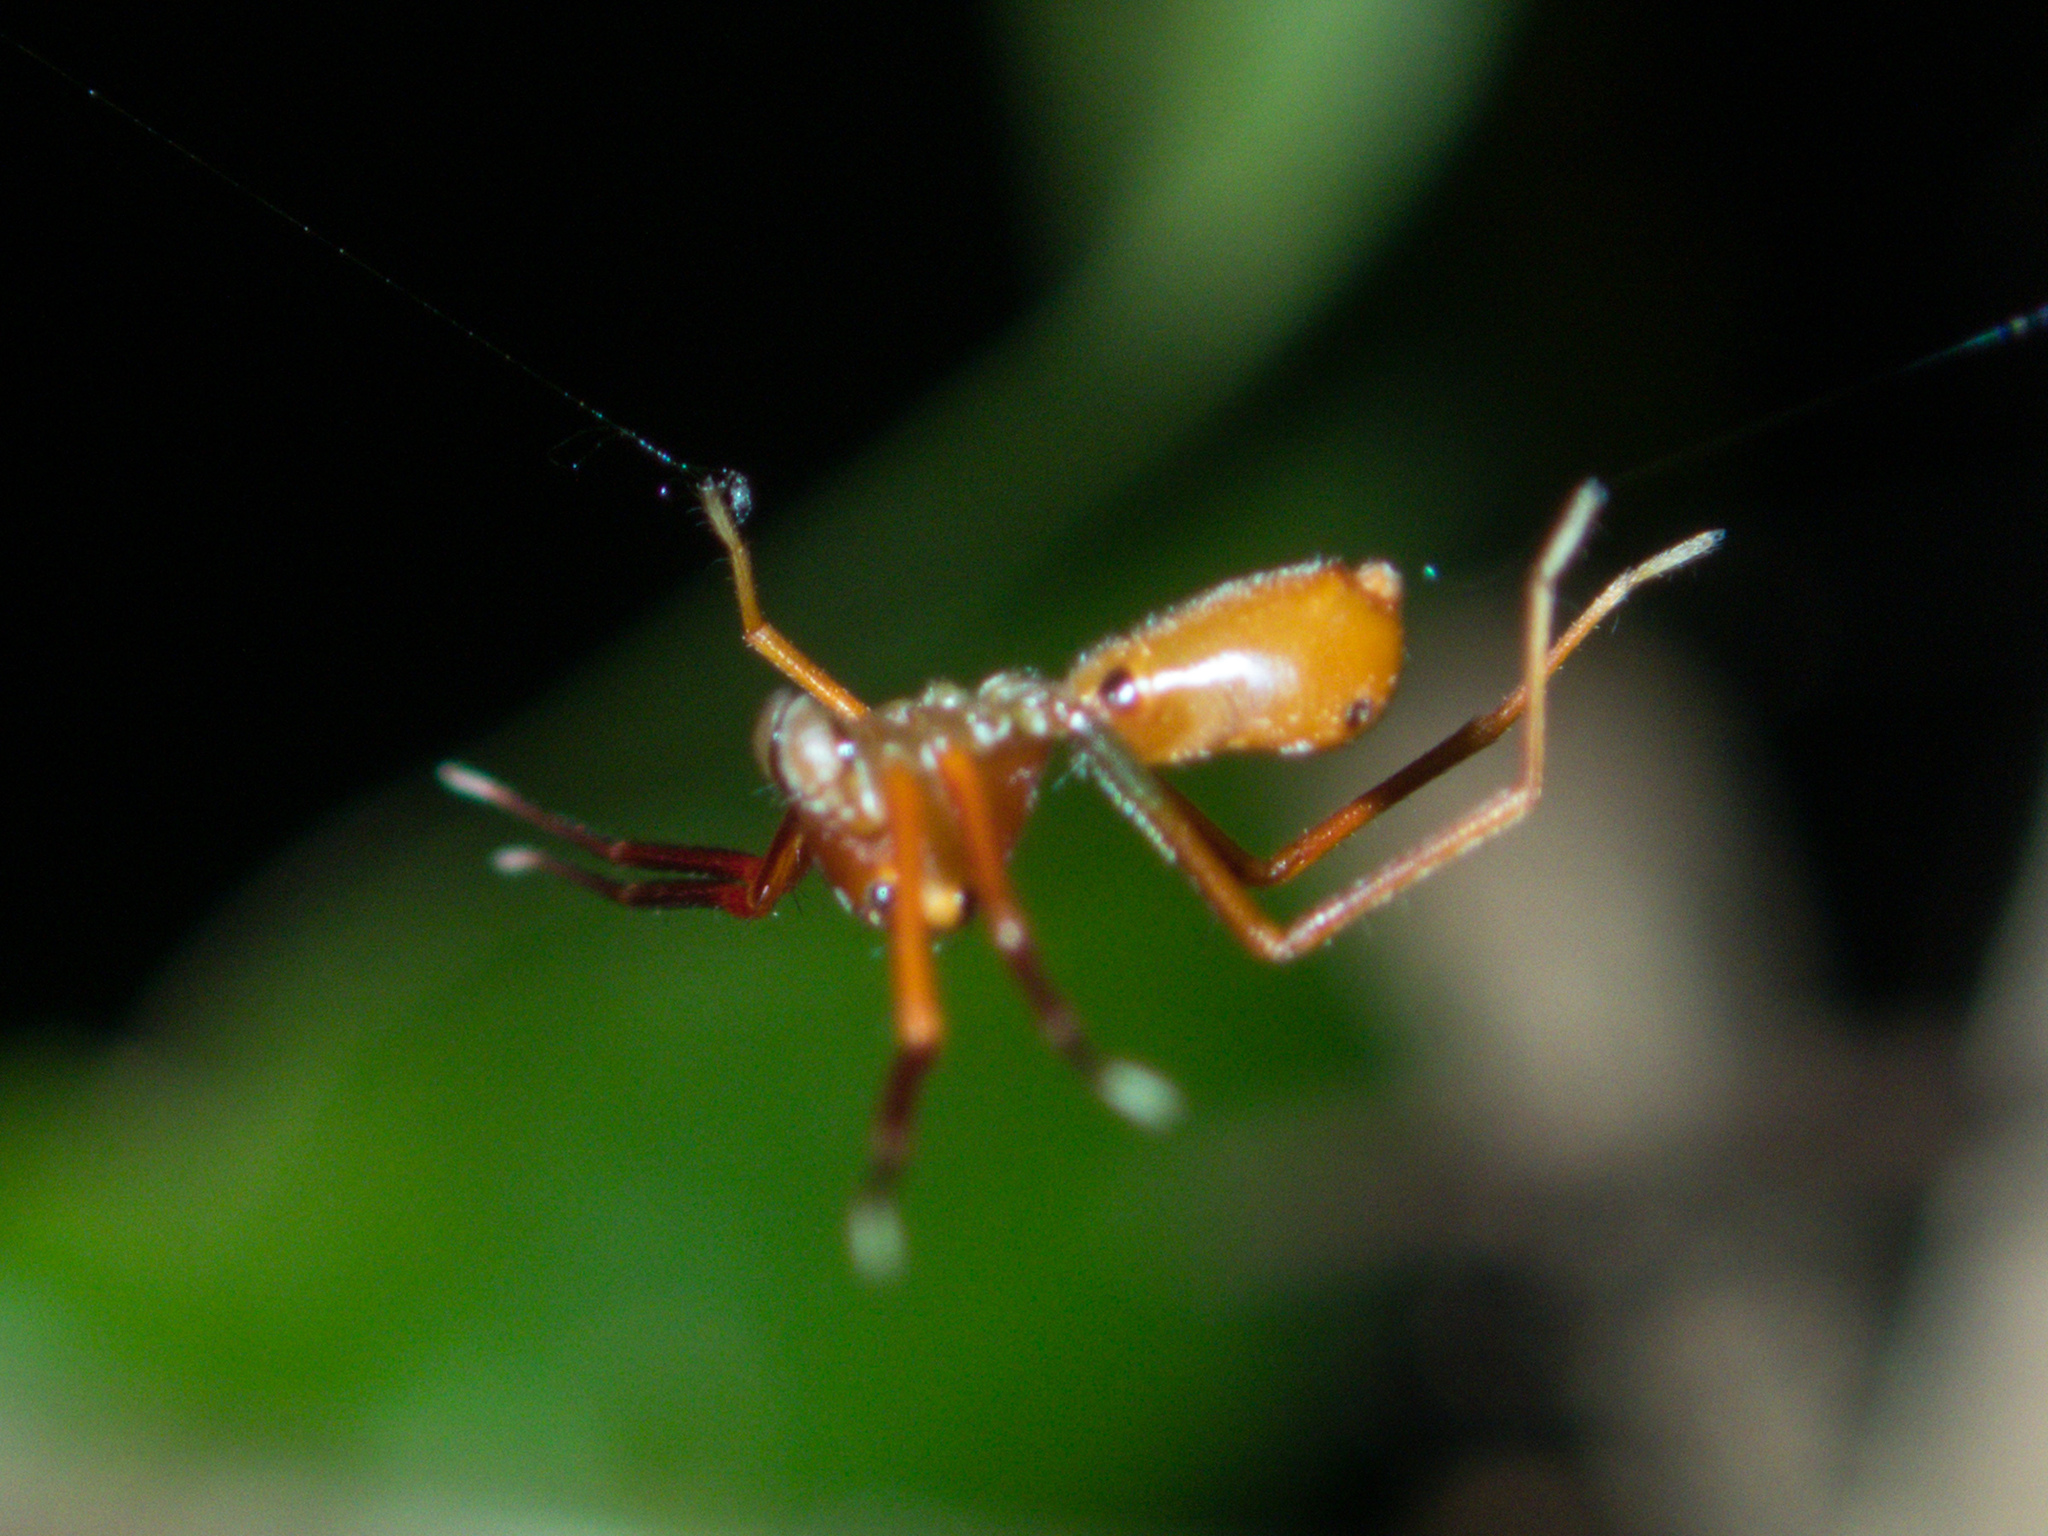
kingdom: Animalia
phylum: Arthropoda
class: Arachnida
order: Araneae
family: Thomisidae
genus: Amyciaea
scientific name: Amyciaea forticeps
